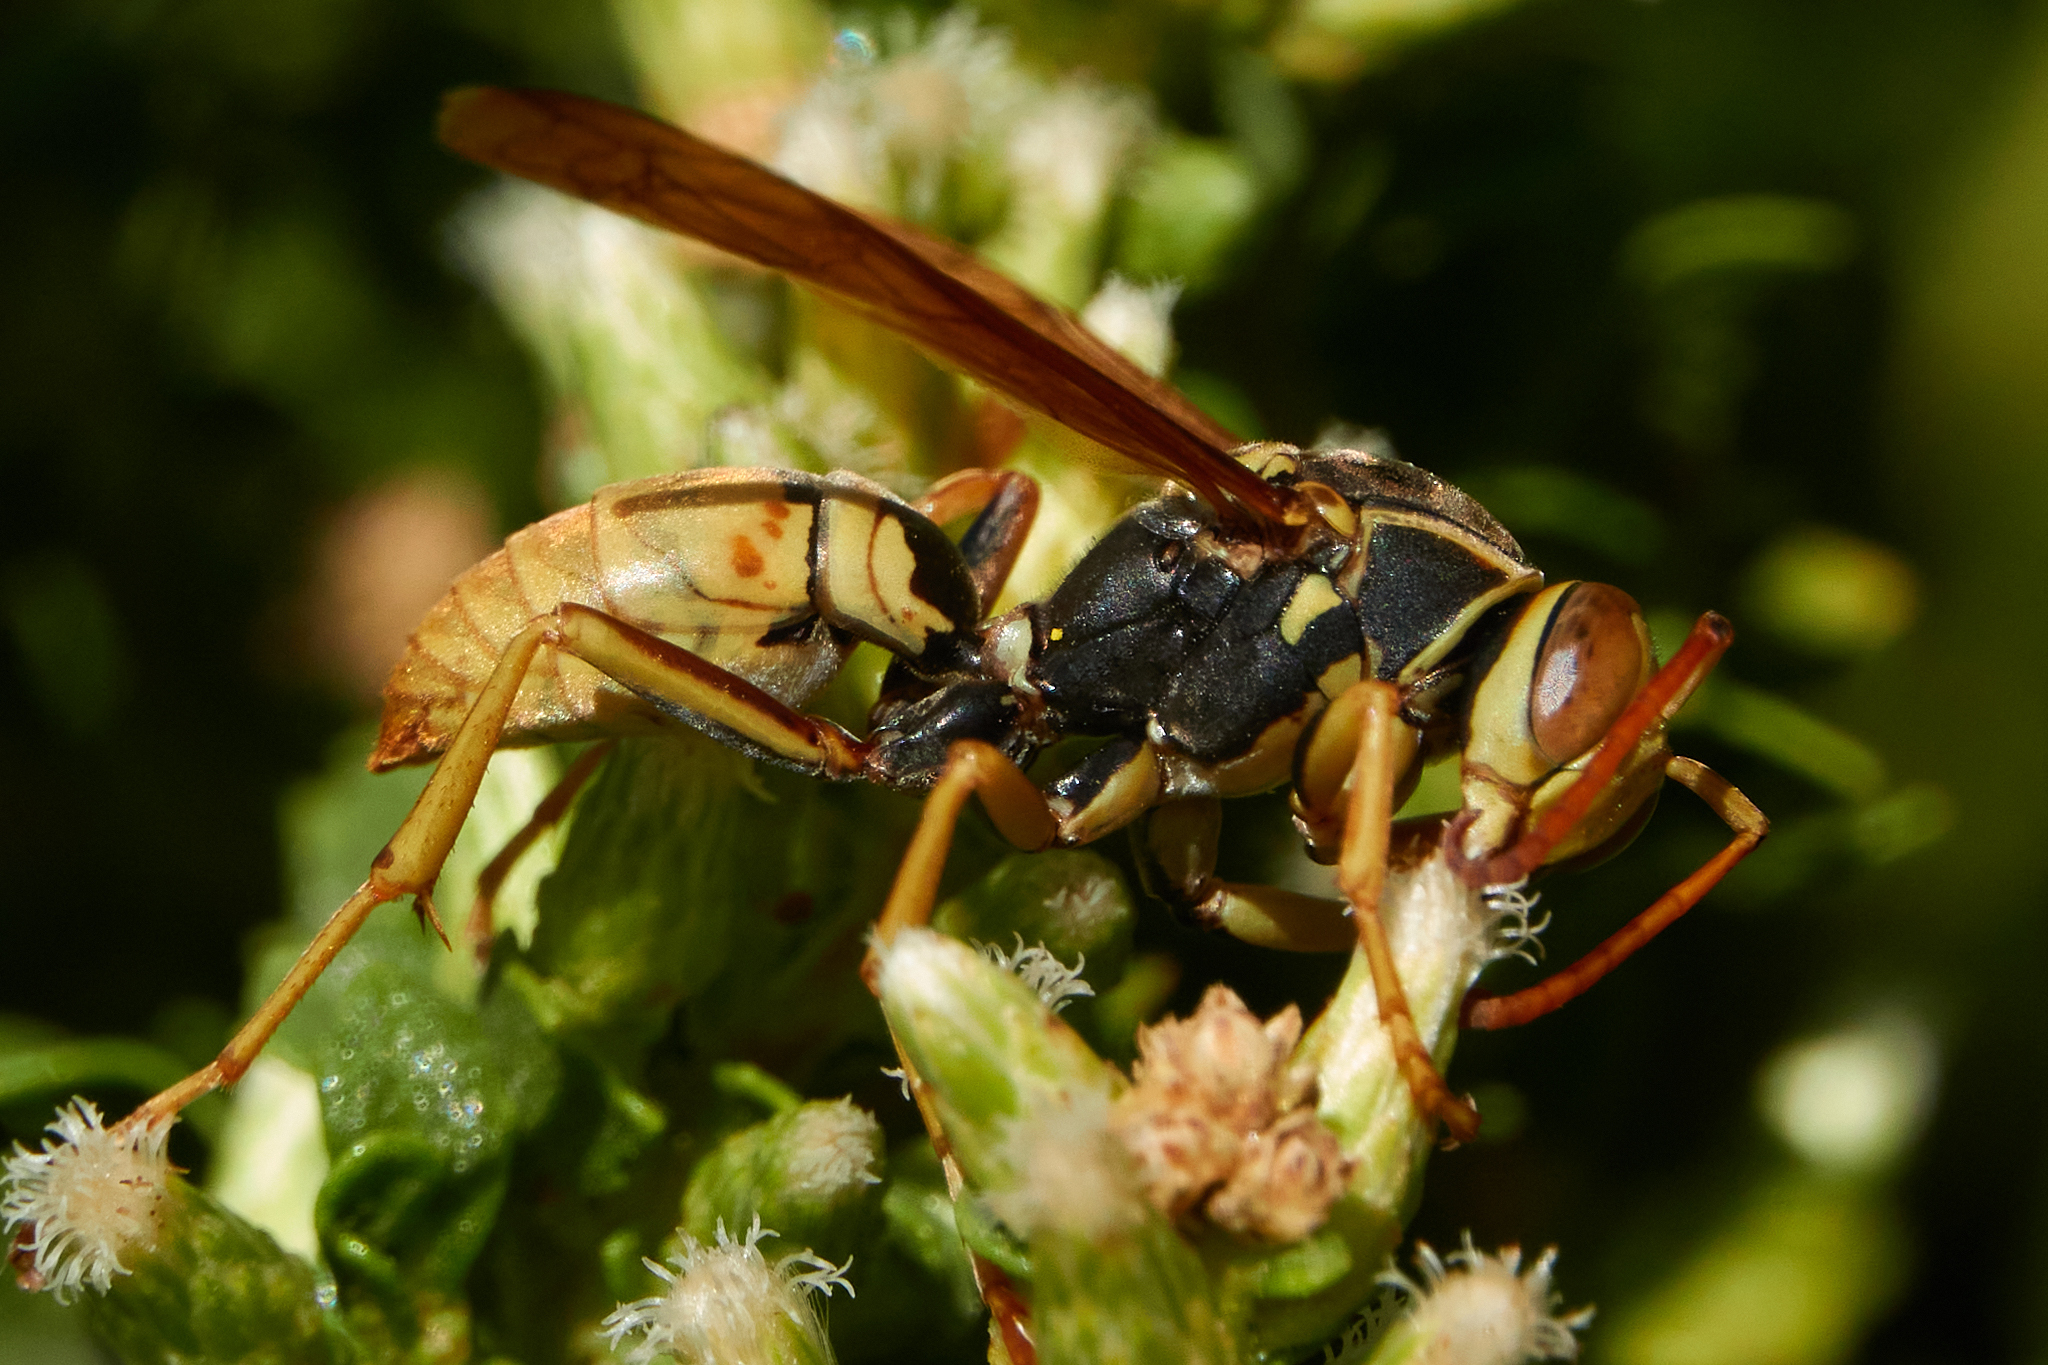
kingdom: Animalia
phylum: Arthropoda
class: Insecta
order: Hymenoptera
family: Eumenidae
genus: Polistes
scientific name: Polistes aurifer
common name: Paper wasp
